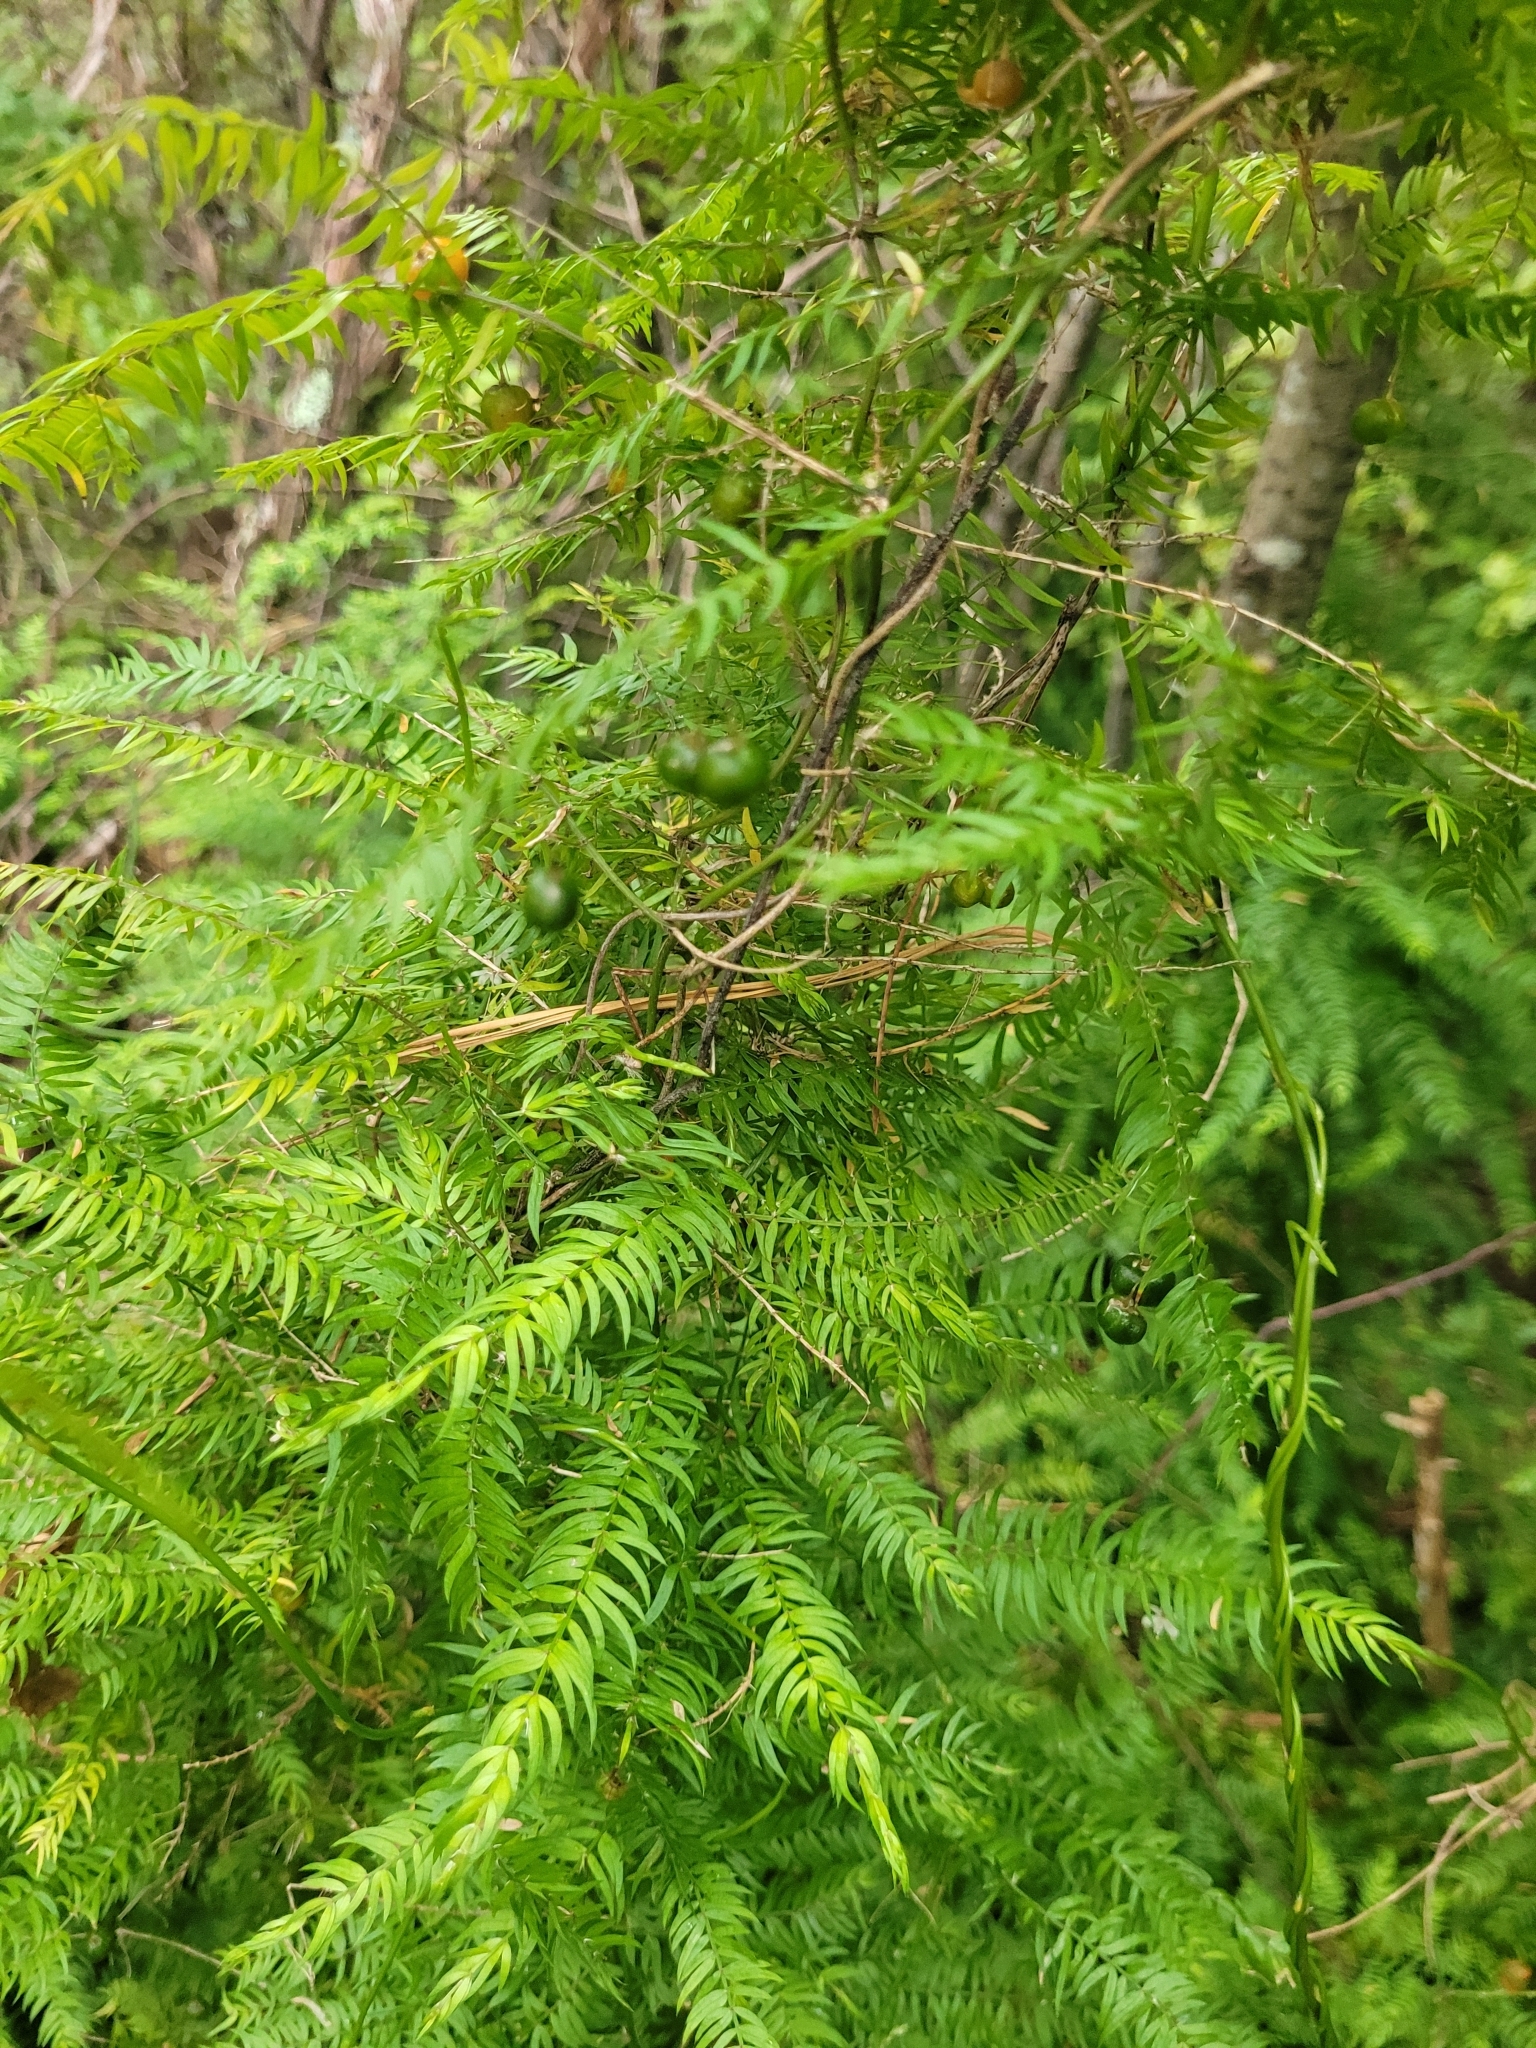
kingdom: Plantae
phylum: Tracheophyta
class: Liliopsida
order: Asparagales
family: Asparagaceae
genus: Asparagus
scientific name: Asparagus scandens
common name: Asparagus-fern
